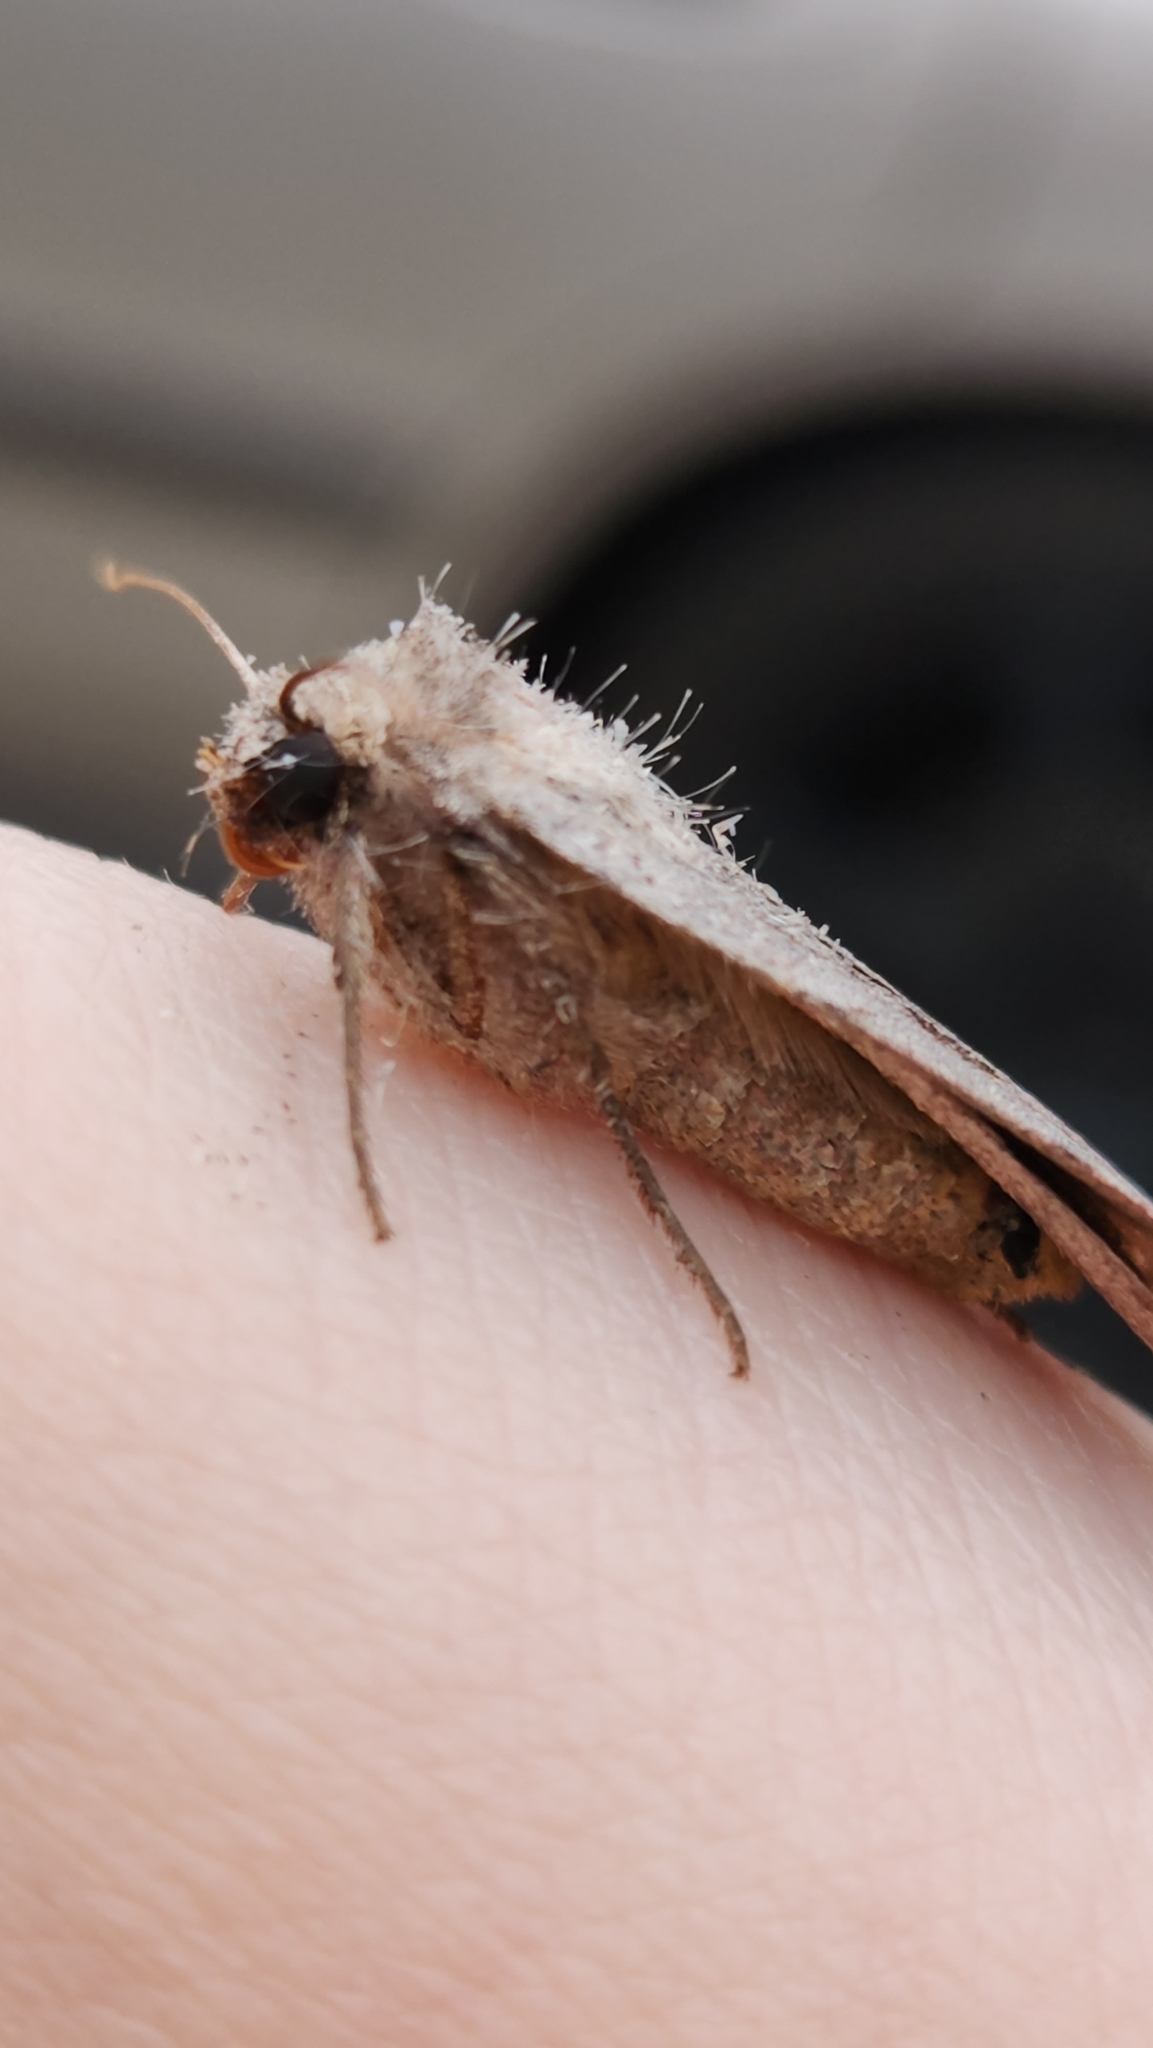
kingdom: Animalia
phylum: Arthropoda
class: Insecta
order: Lepidoptera
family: Noctuidae
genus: Xestia
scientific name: Xestia elimata
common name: Chameleon caterpillar
